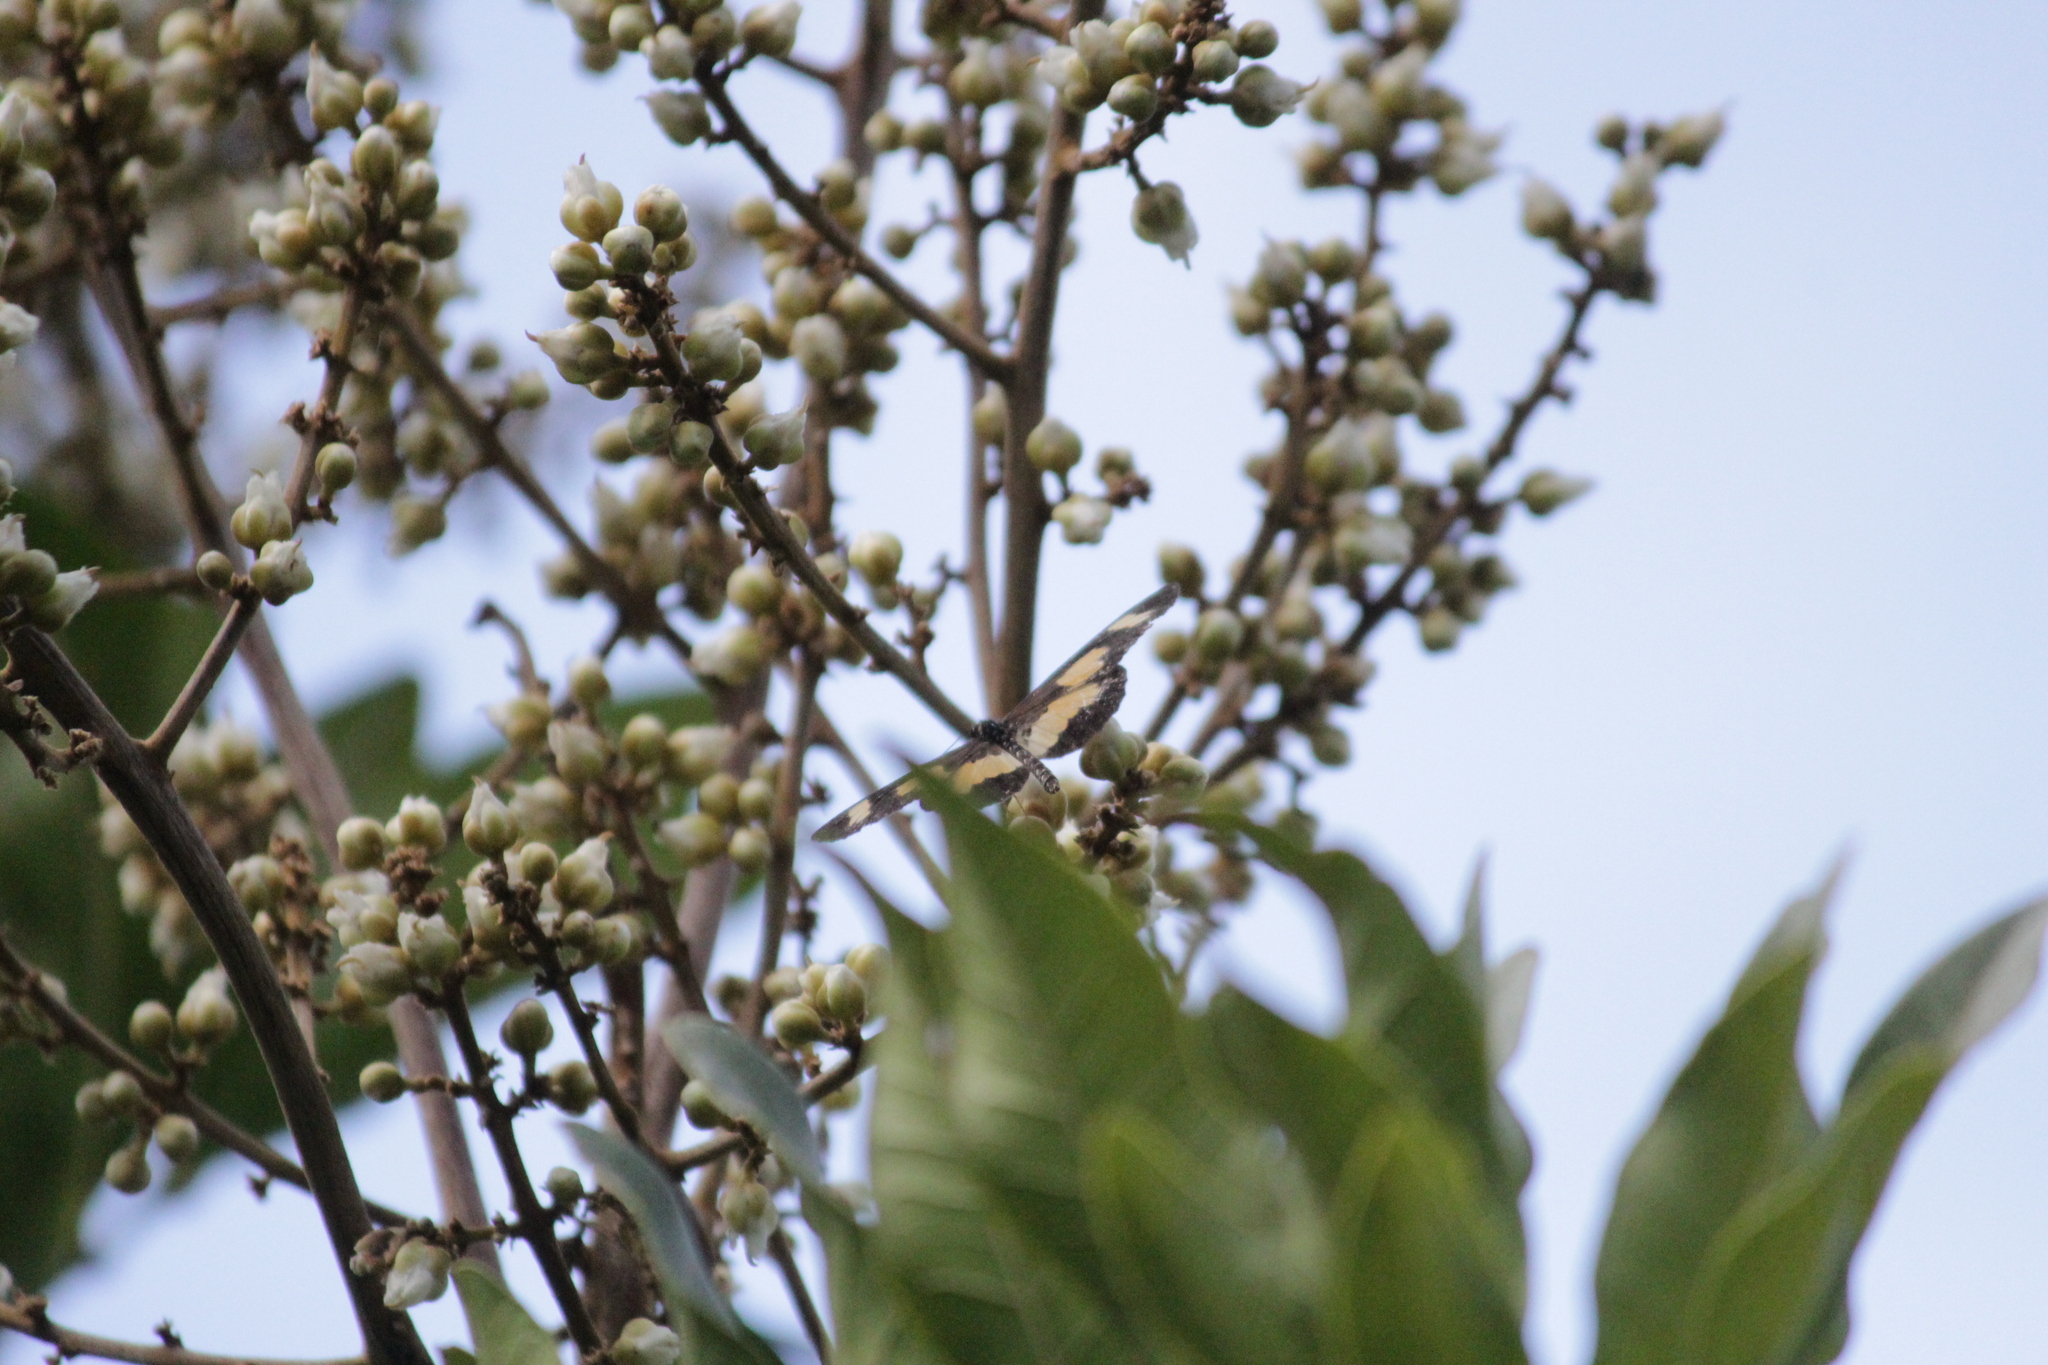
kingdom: Animalia
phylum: Arthropoda
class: Insecta
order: Lepidoptera
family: Nymphalidae
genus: Acraea
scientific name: Acraea cabira
